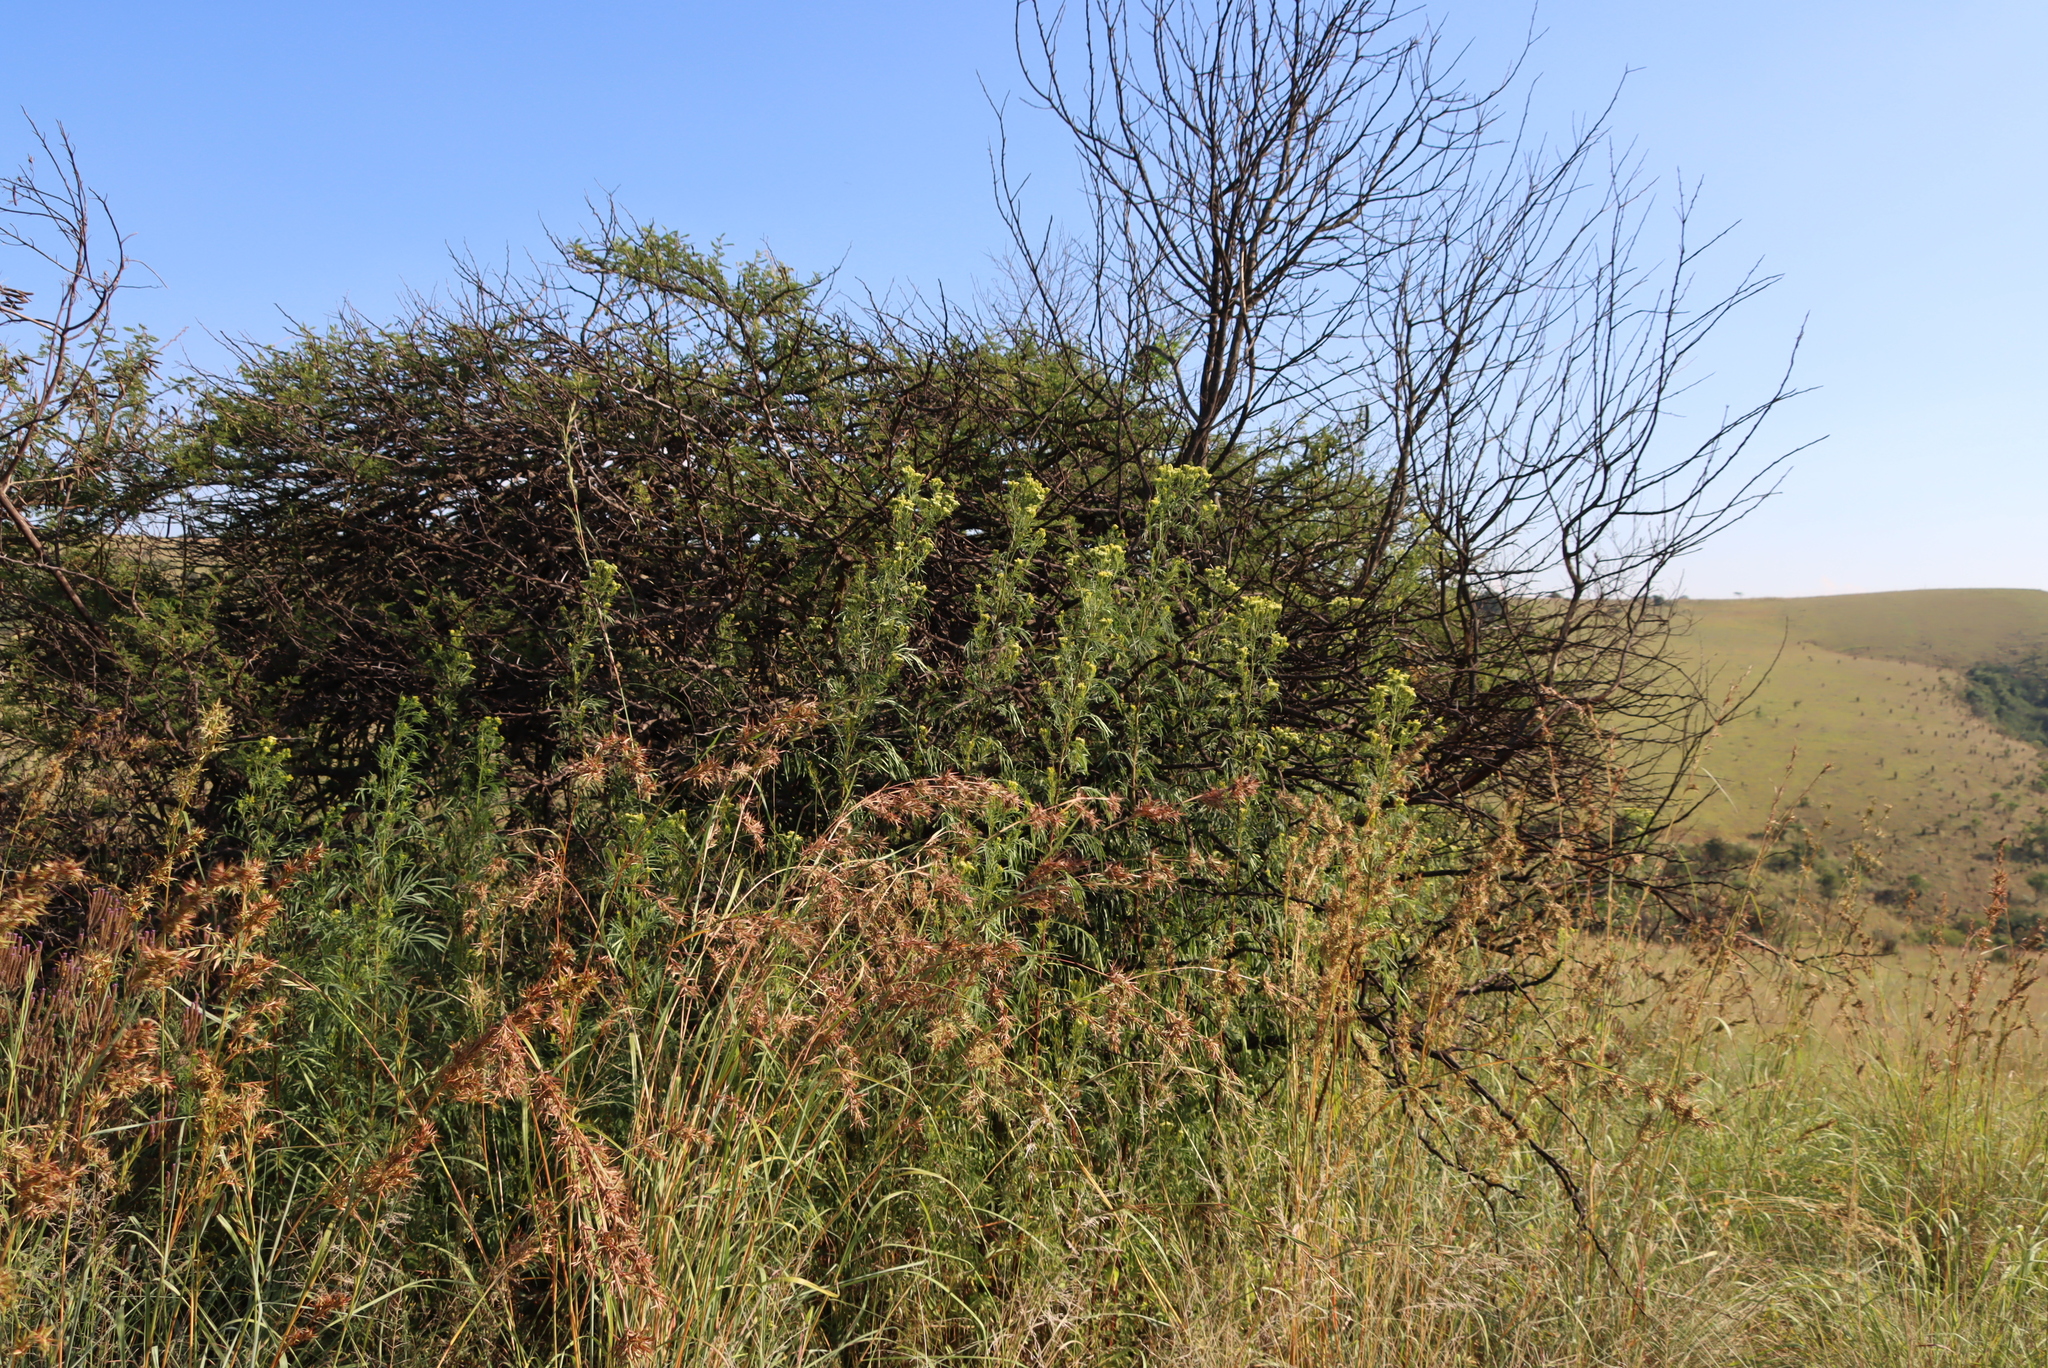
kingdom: Plantae
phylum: Tracheophyta
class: Magnoliopsida
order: Asterales
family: Asteraceae
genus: Tagetes
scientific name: Tagetes minuta
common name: Muster john henry
